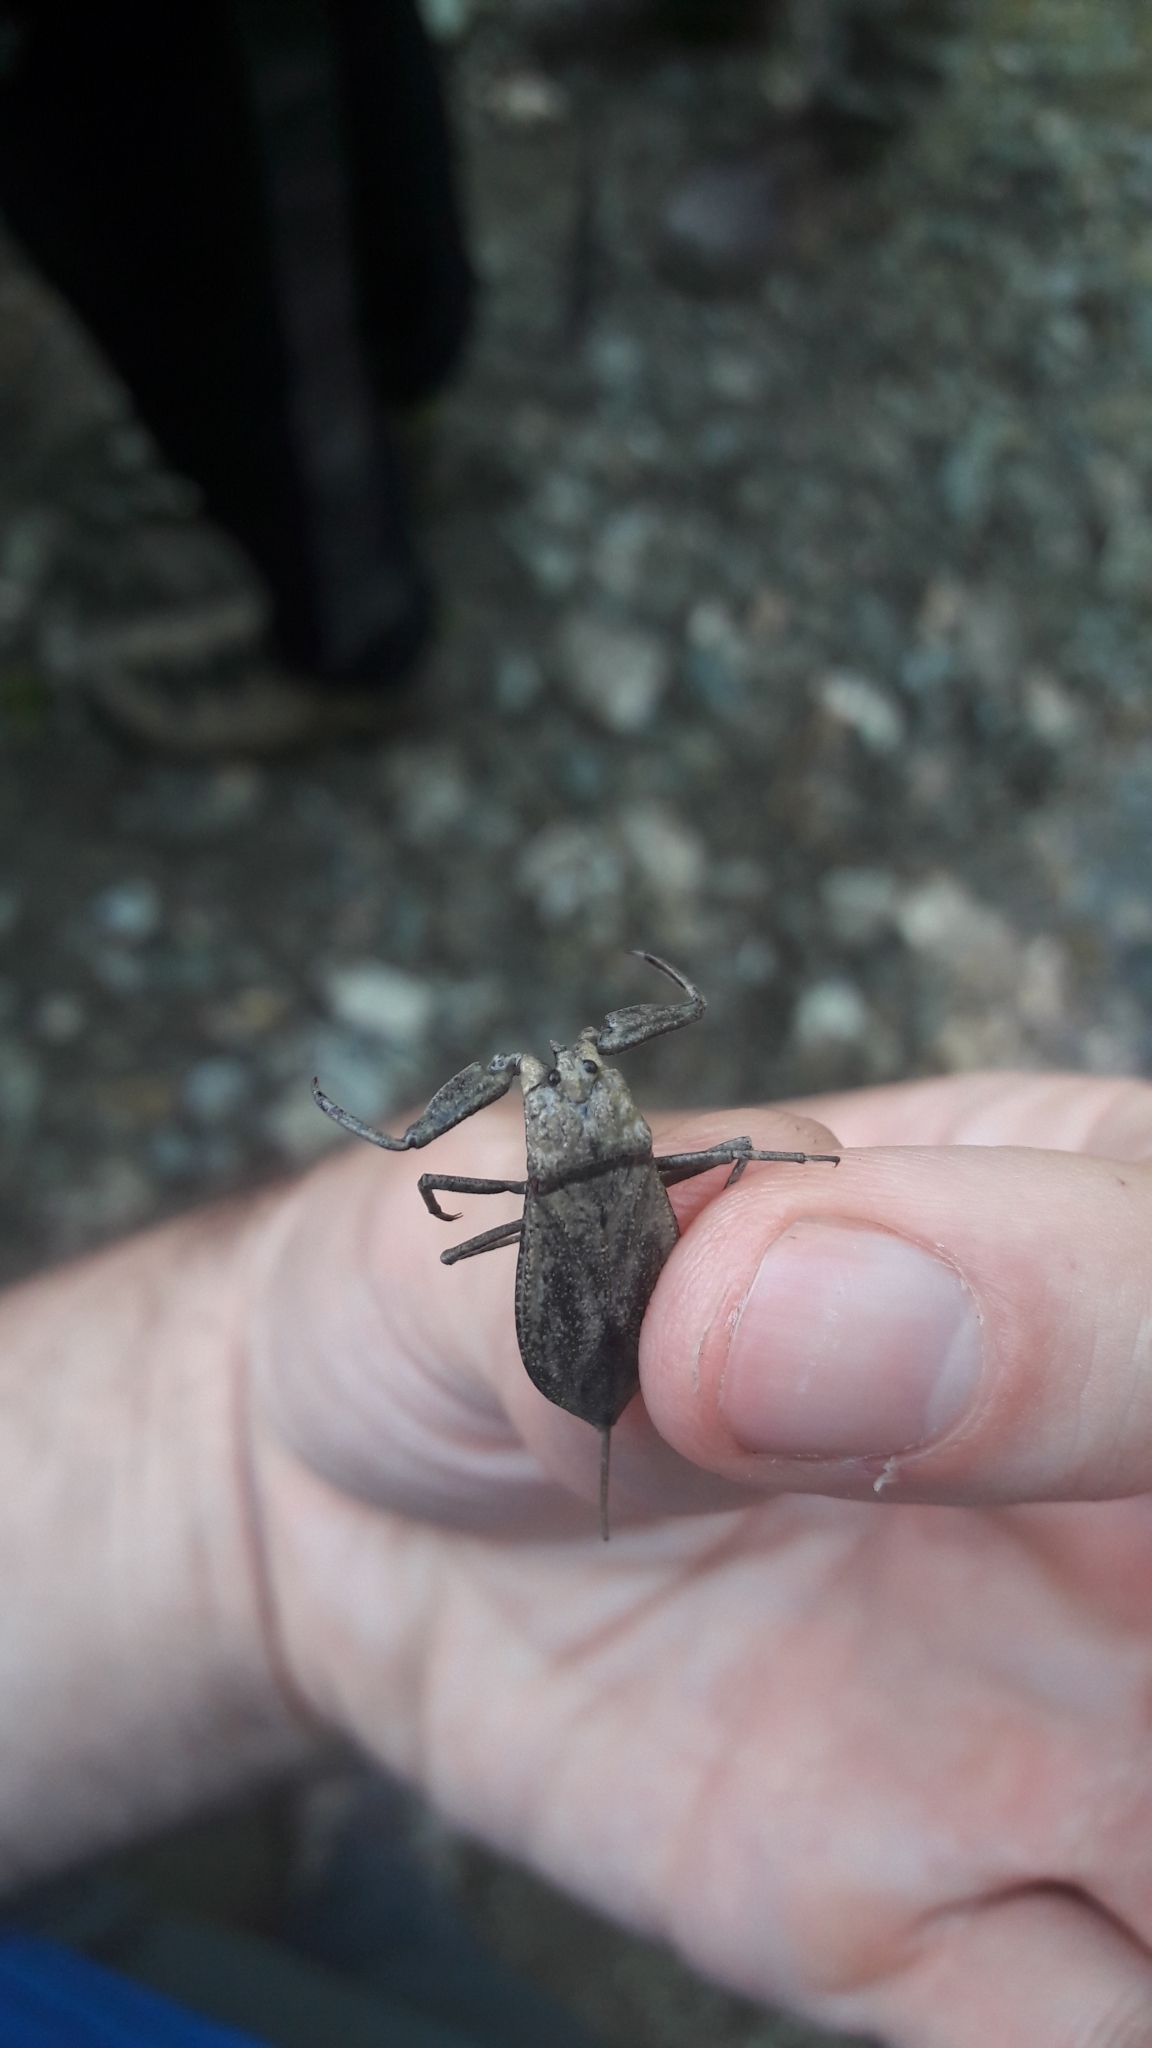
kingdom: Animalia
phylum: Arthropoda
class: Insecta
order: Hemiptera
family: Nepidae
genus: Nepa
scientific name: Nepa cinerea
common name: Water scorpion
